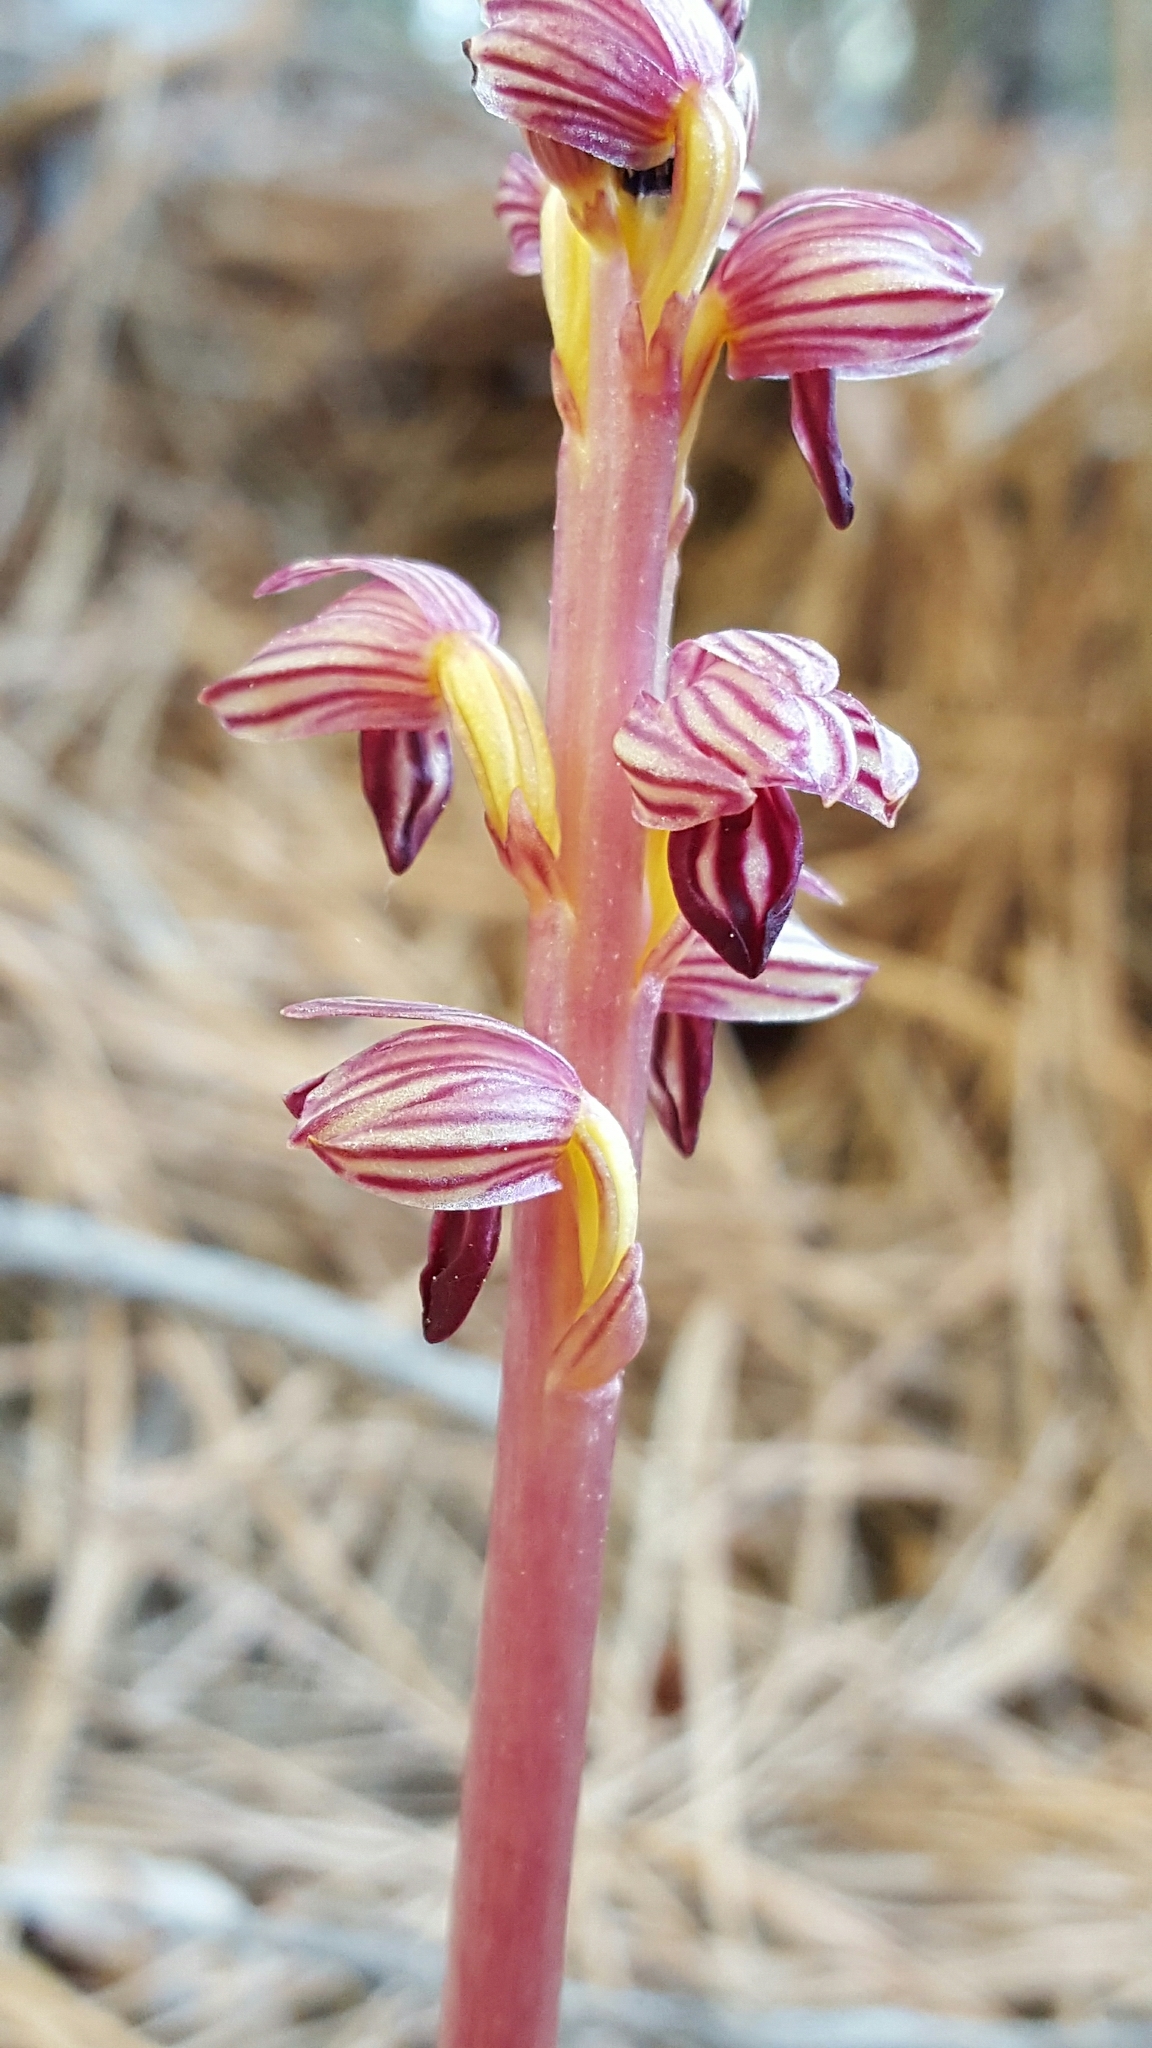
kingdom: Plantae
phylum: Tracheophyta
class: Liliopsida
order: Asparagales
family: Orchidaceae
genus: Corallorhiza
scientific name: Corallorhiza striata
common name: Hooded coralroot
